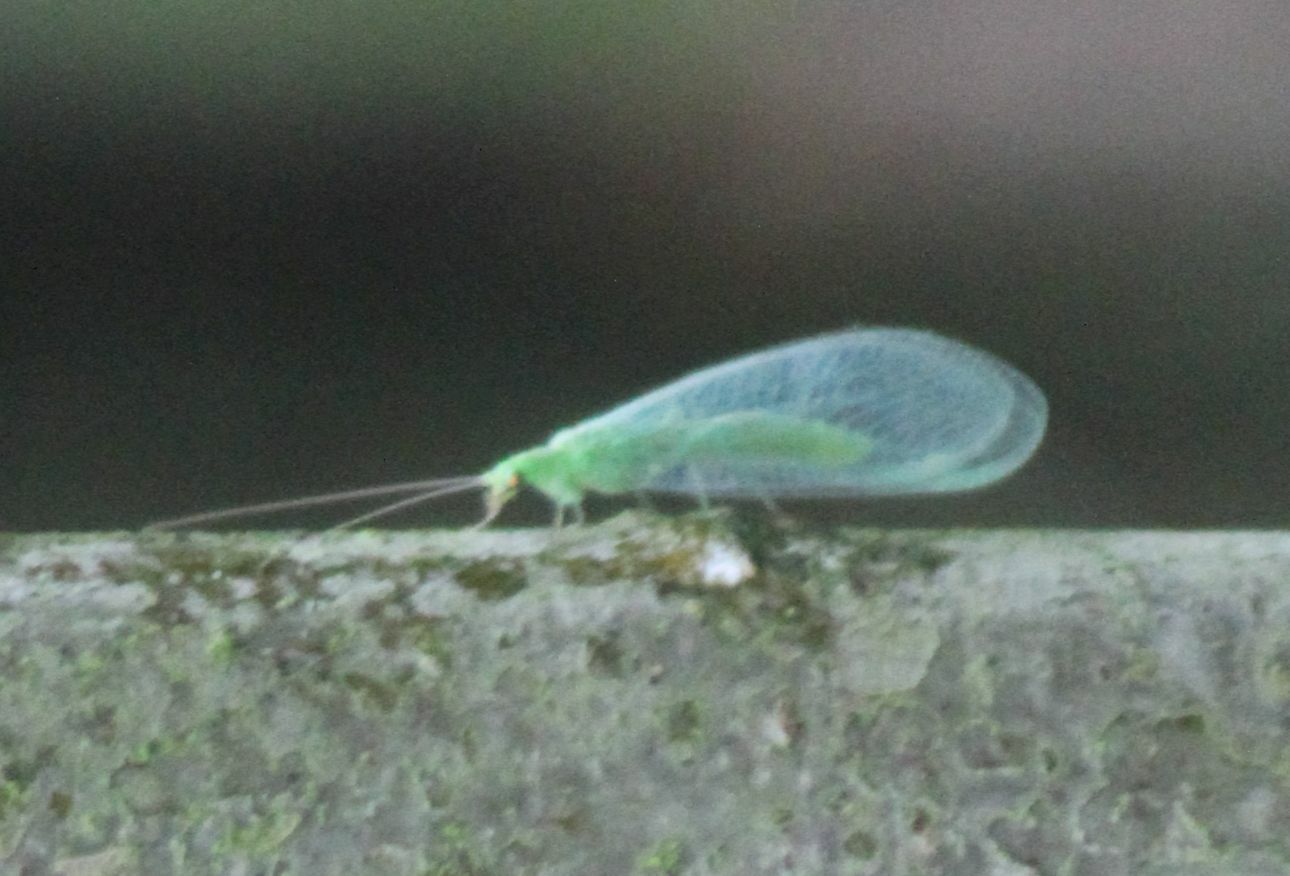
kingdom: Animalia
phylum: Arthropoda
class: Insecta
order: Neuroptera
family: Chrysopidae
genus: Chrysoperla
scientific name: Chrysoperla
